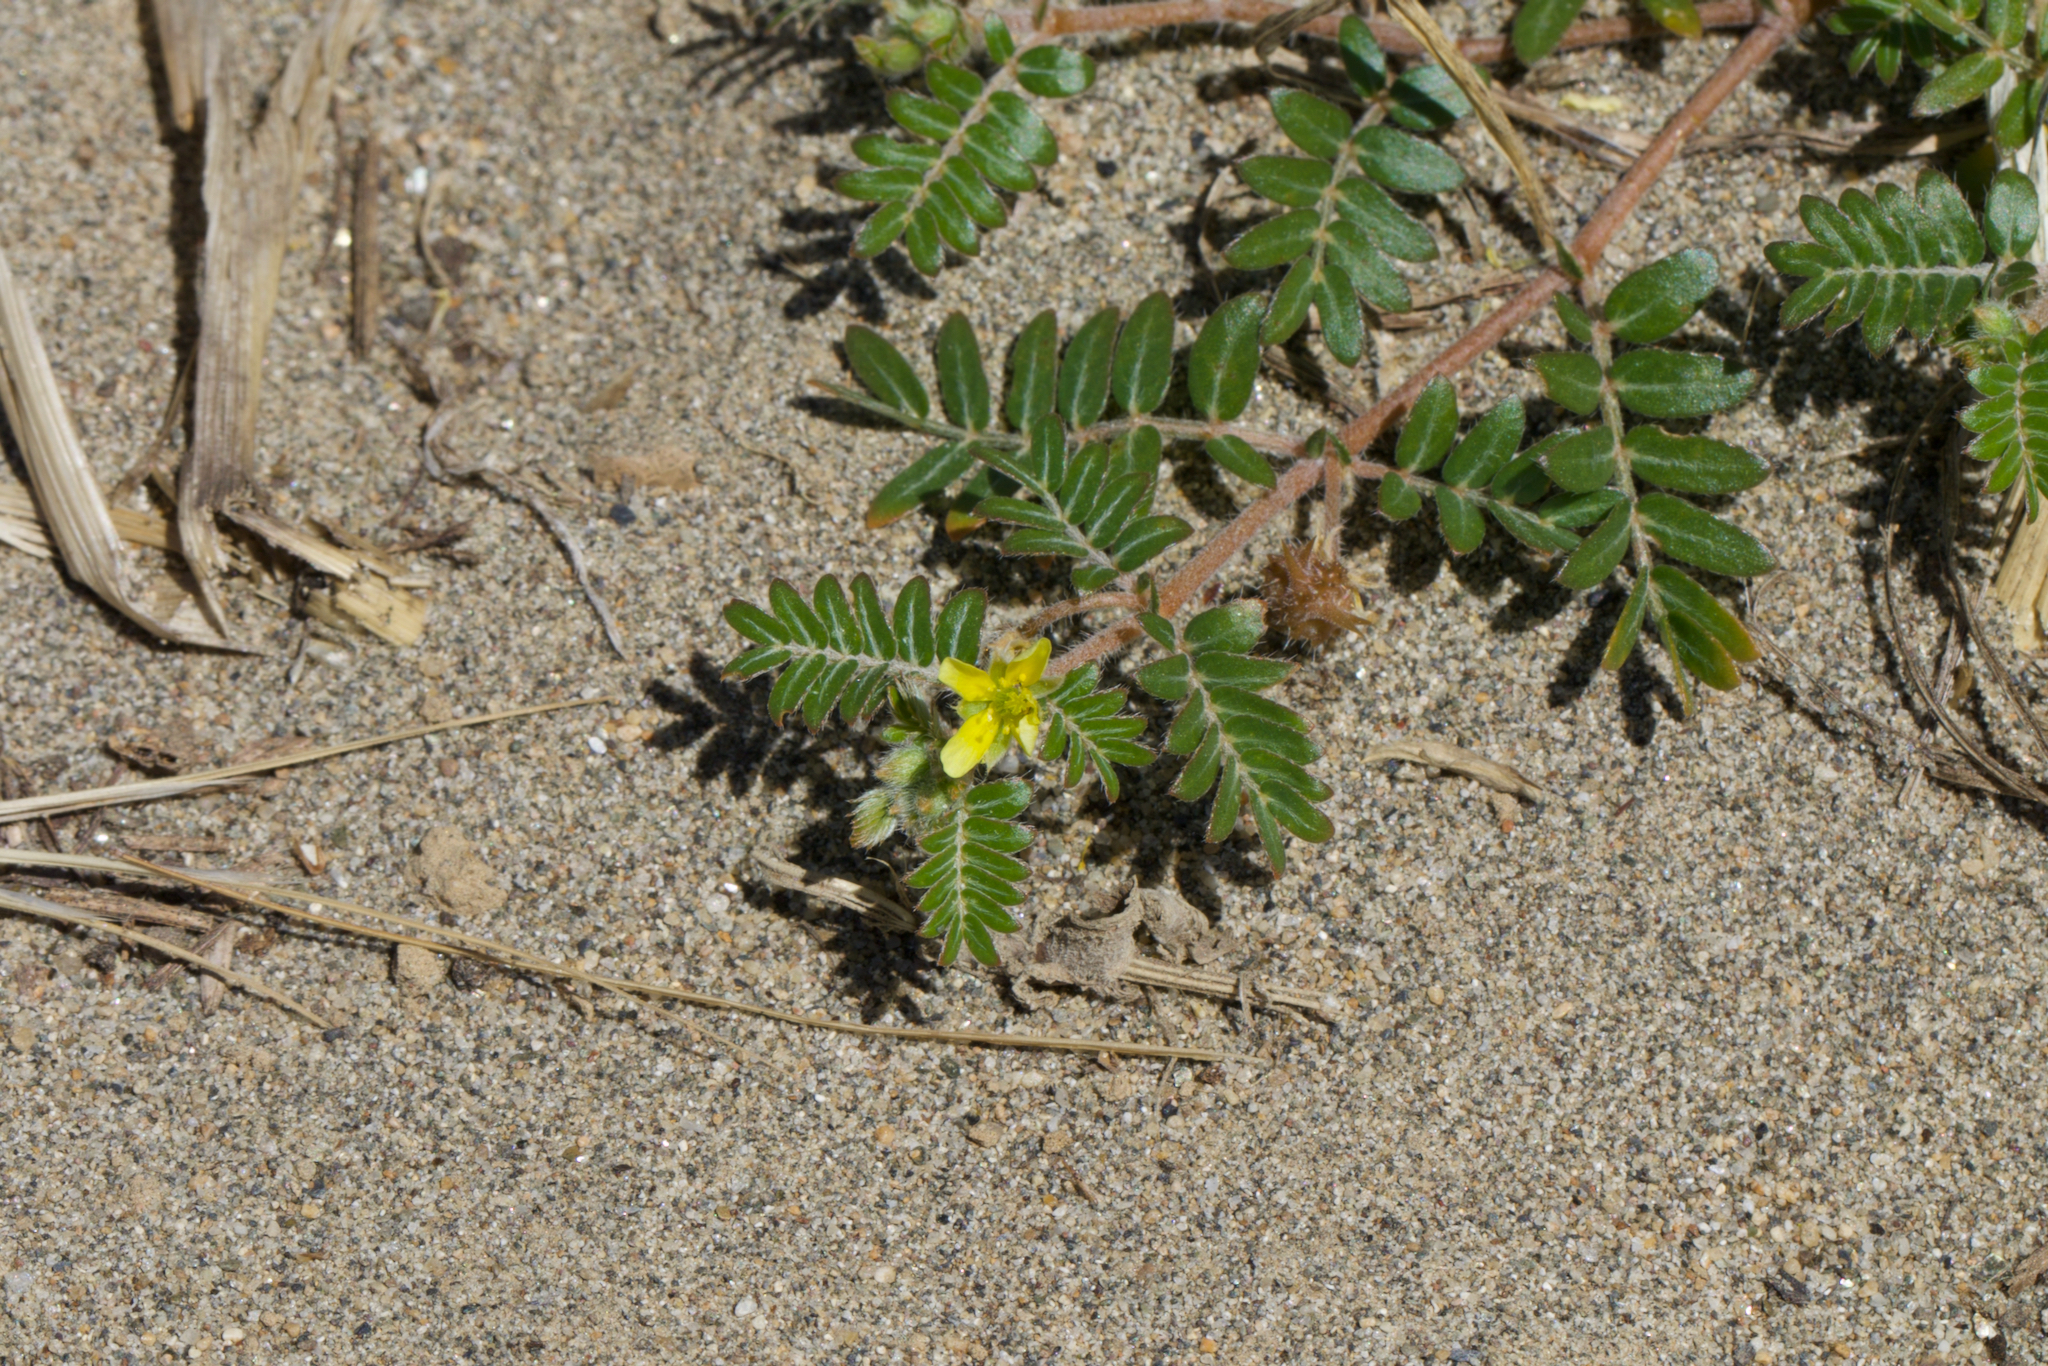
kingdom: Plantae
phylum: Tracheophyta
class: Magnoliopsida
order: Zygophyllales
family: Zygophyllaceae
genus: Tribulus
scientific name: Tribulus terrestris
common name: Puncturevine
